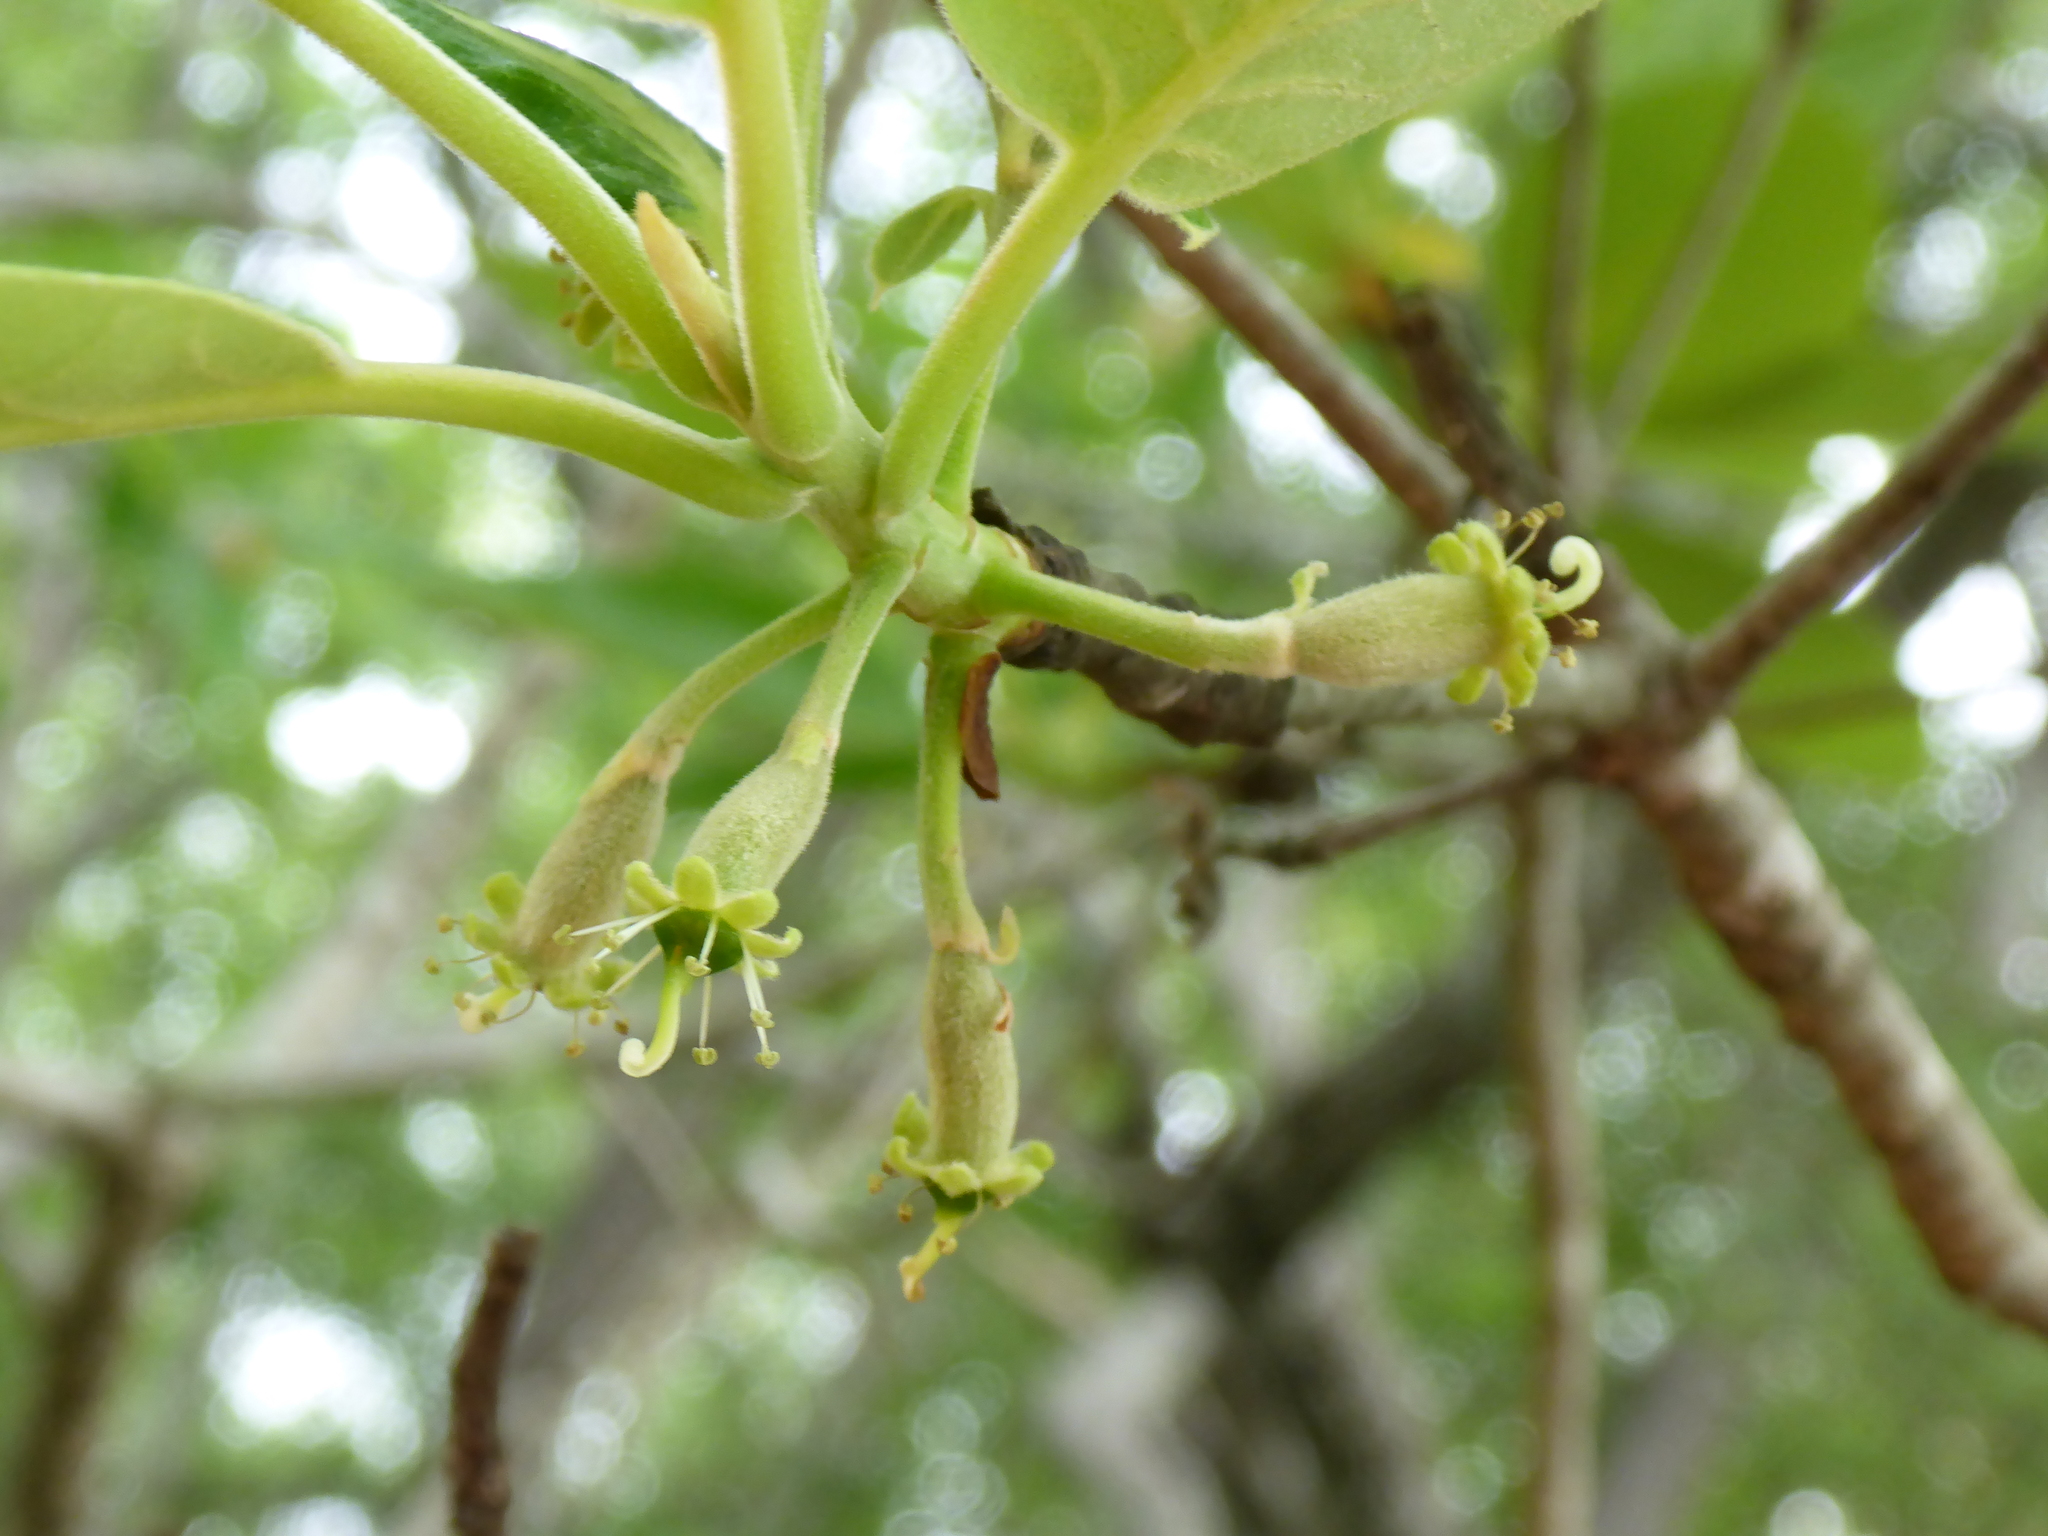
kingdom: Plantae
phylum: Tracheophyta
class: Magnoliopsida
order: Cornales
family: Nyssaceae
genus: Nyssa
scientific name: Nyssa ogeche
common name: Ogeechee tupelo
